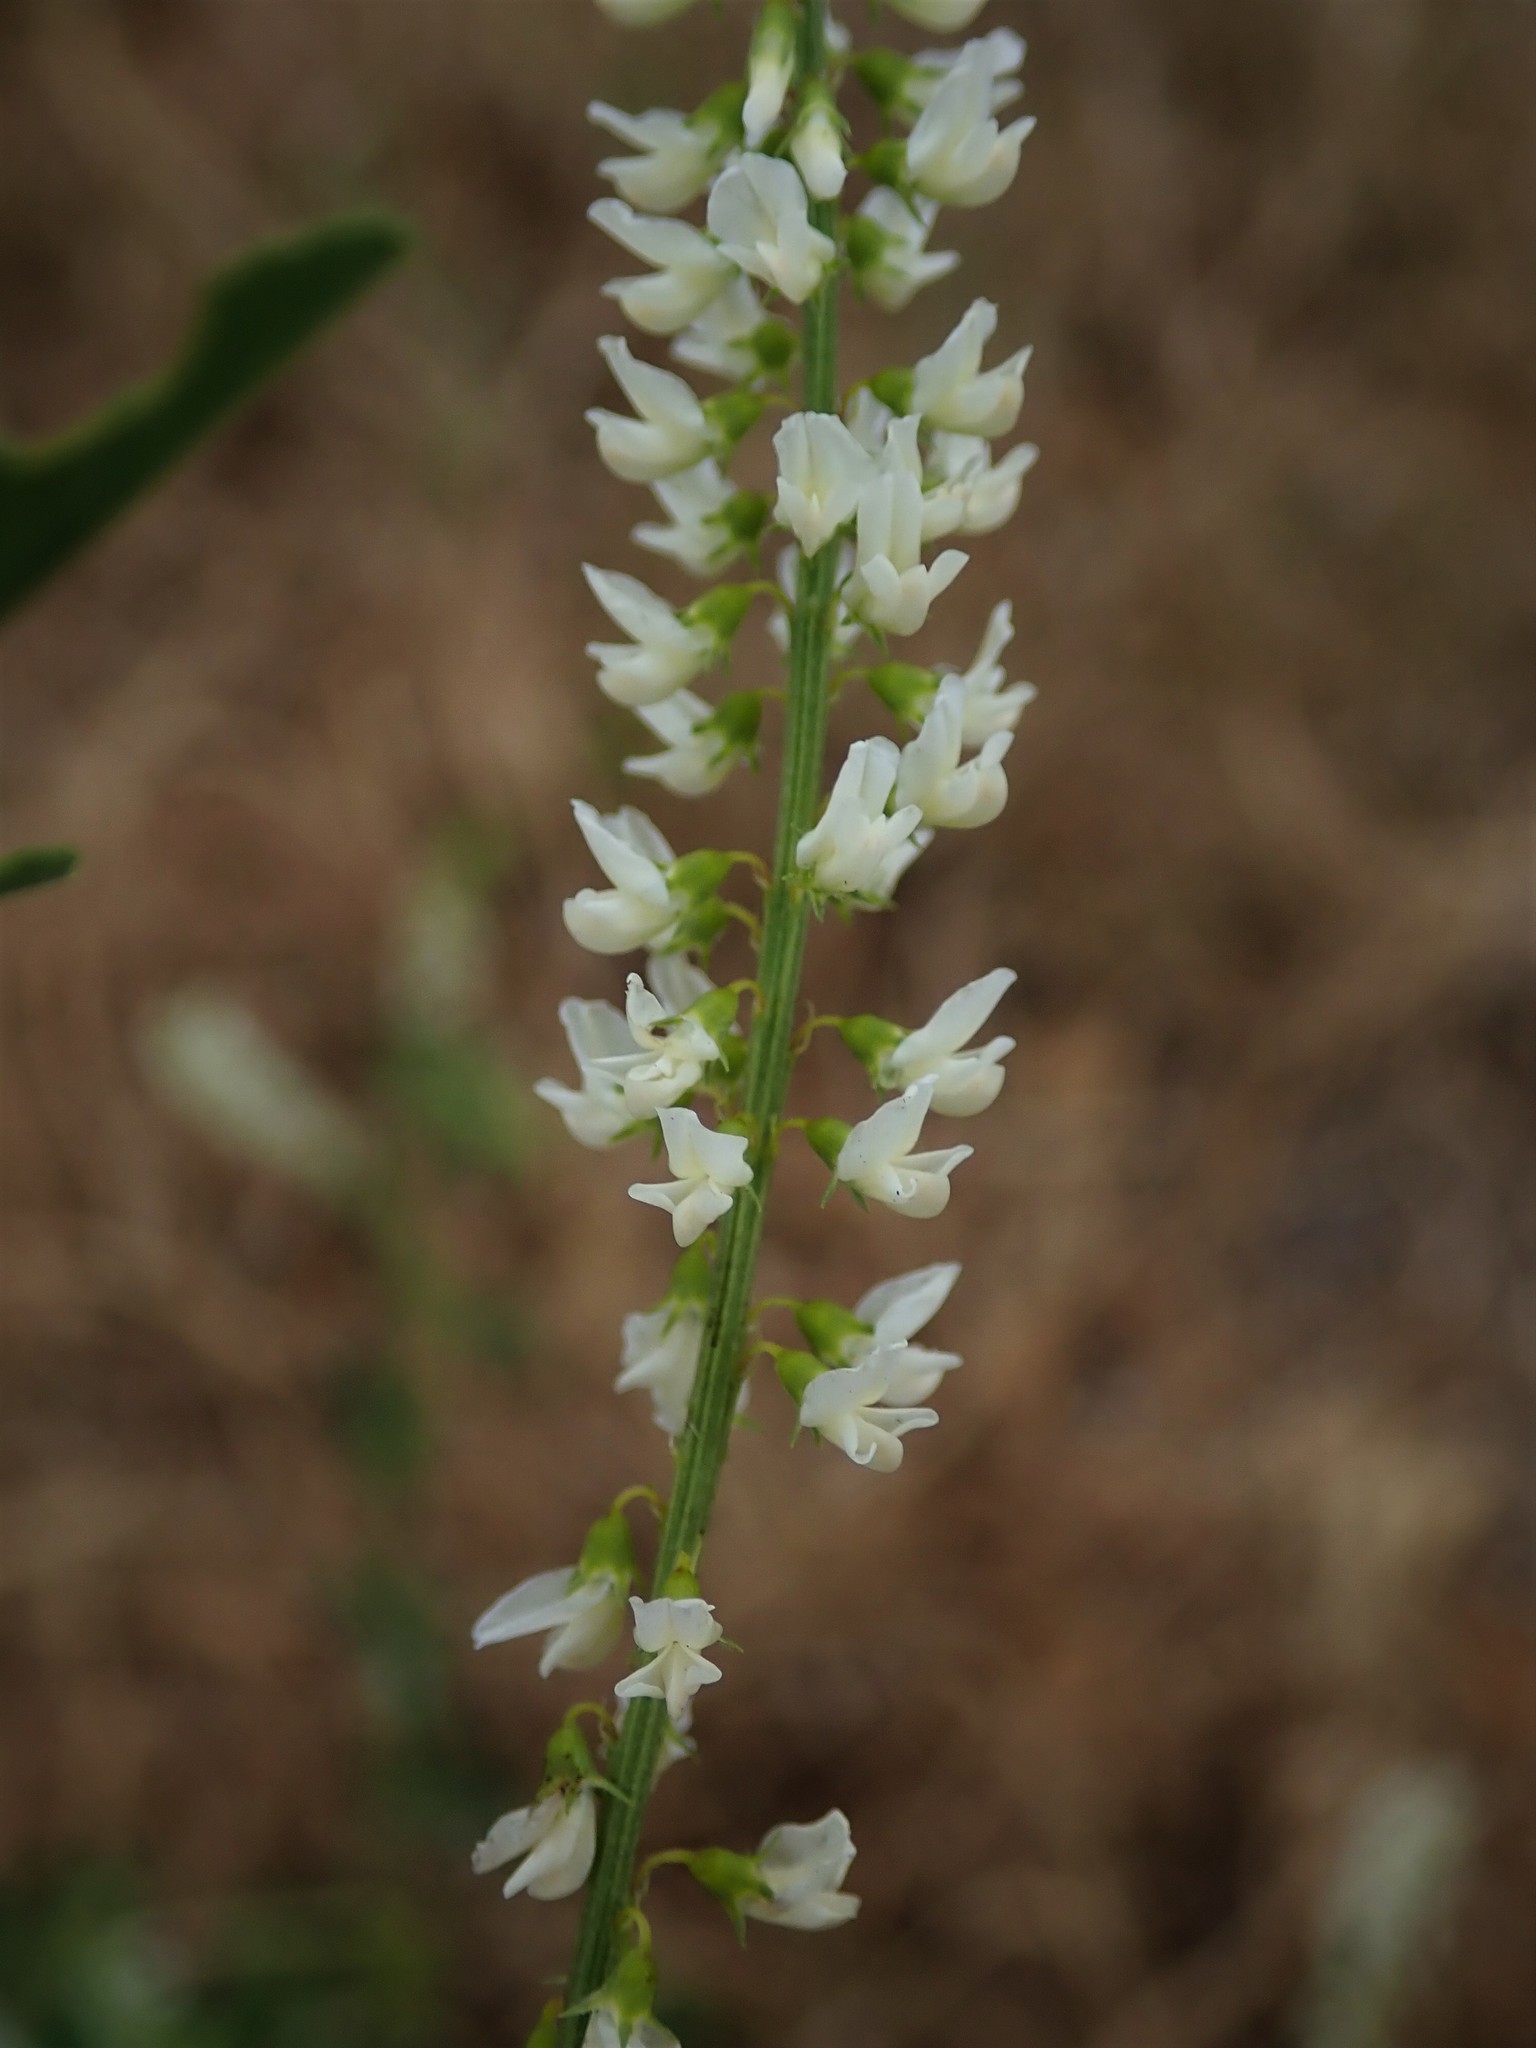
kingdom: Plantae
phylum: Tracheophyta
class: Magnoliopsida
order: Fabales
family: Fabaceae
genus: Melilotus
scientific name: Melilotus albus
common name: White melilot
